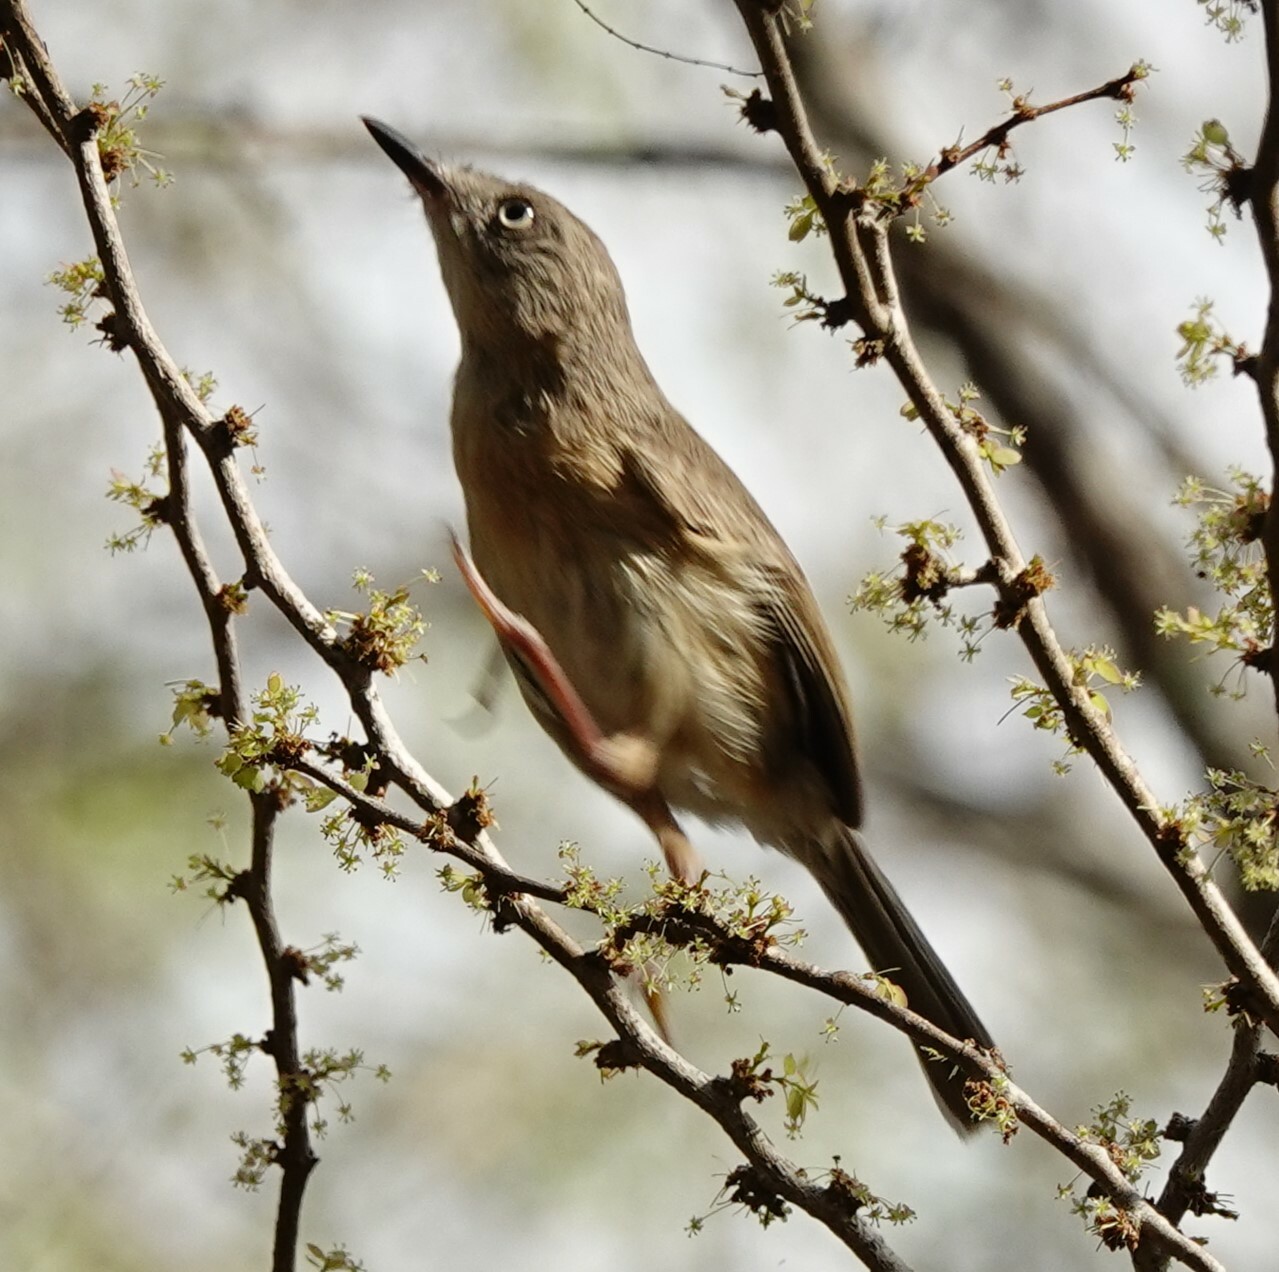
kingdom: Animalia
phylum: Chordata
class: Aves
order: Passeriformes
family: Vangidae
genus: Newtonia
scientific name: Newtonia brunneicauda
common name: Common newtonia
